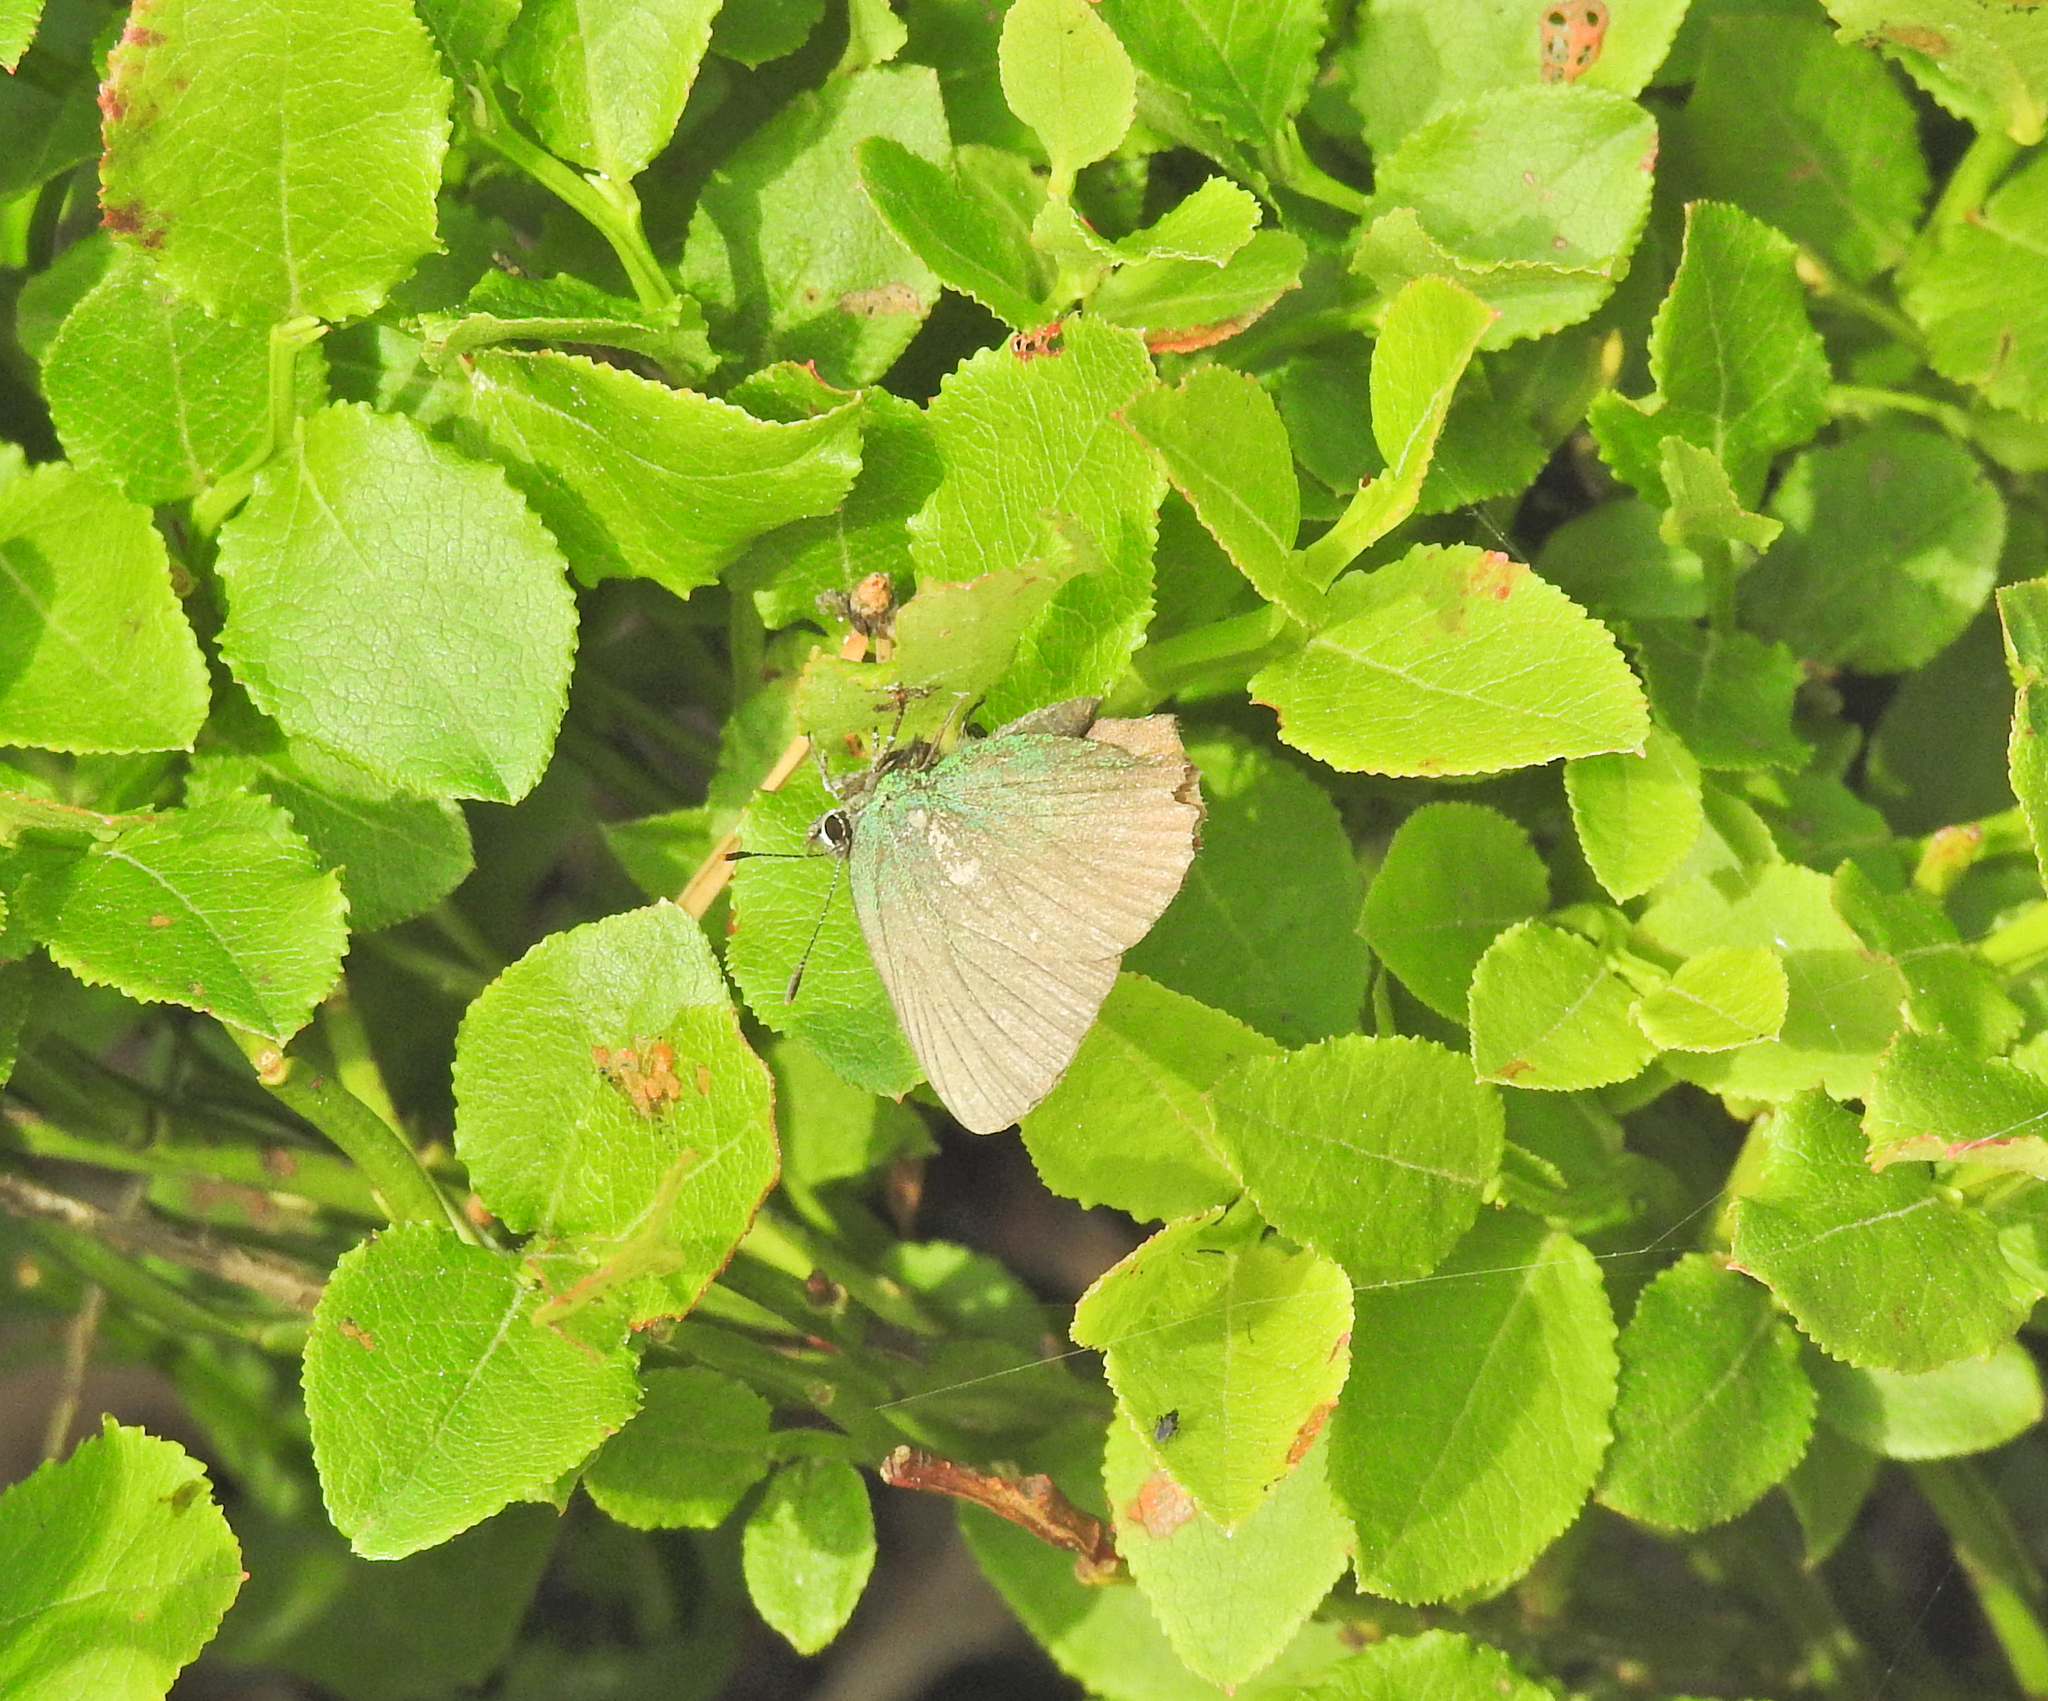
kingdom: Animalia
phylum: Arthropoda
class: Insecta
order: Lepidoptera
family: Lycaenidae
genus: Callophrys
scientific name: Callophrys rubi
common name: Green hairstreak
